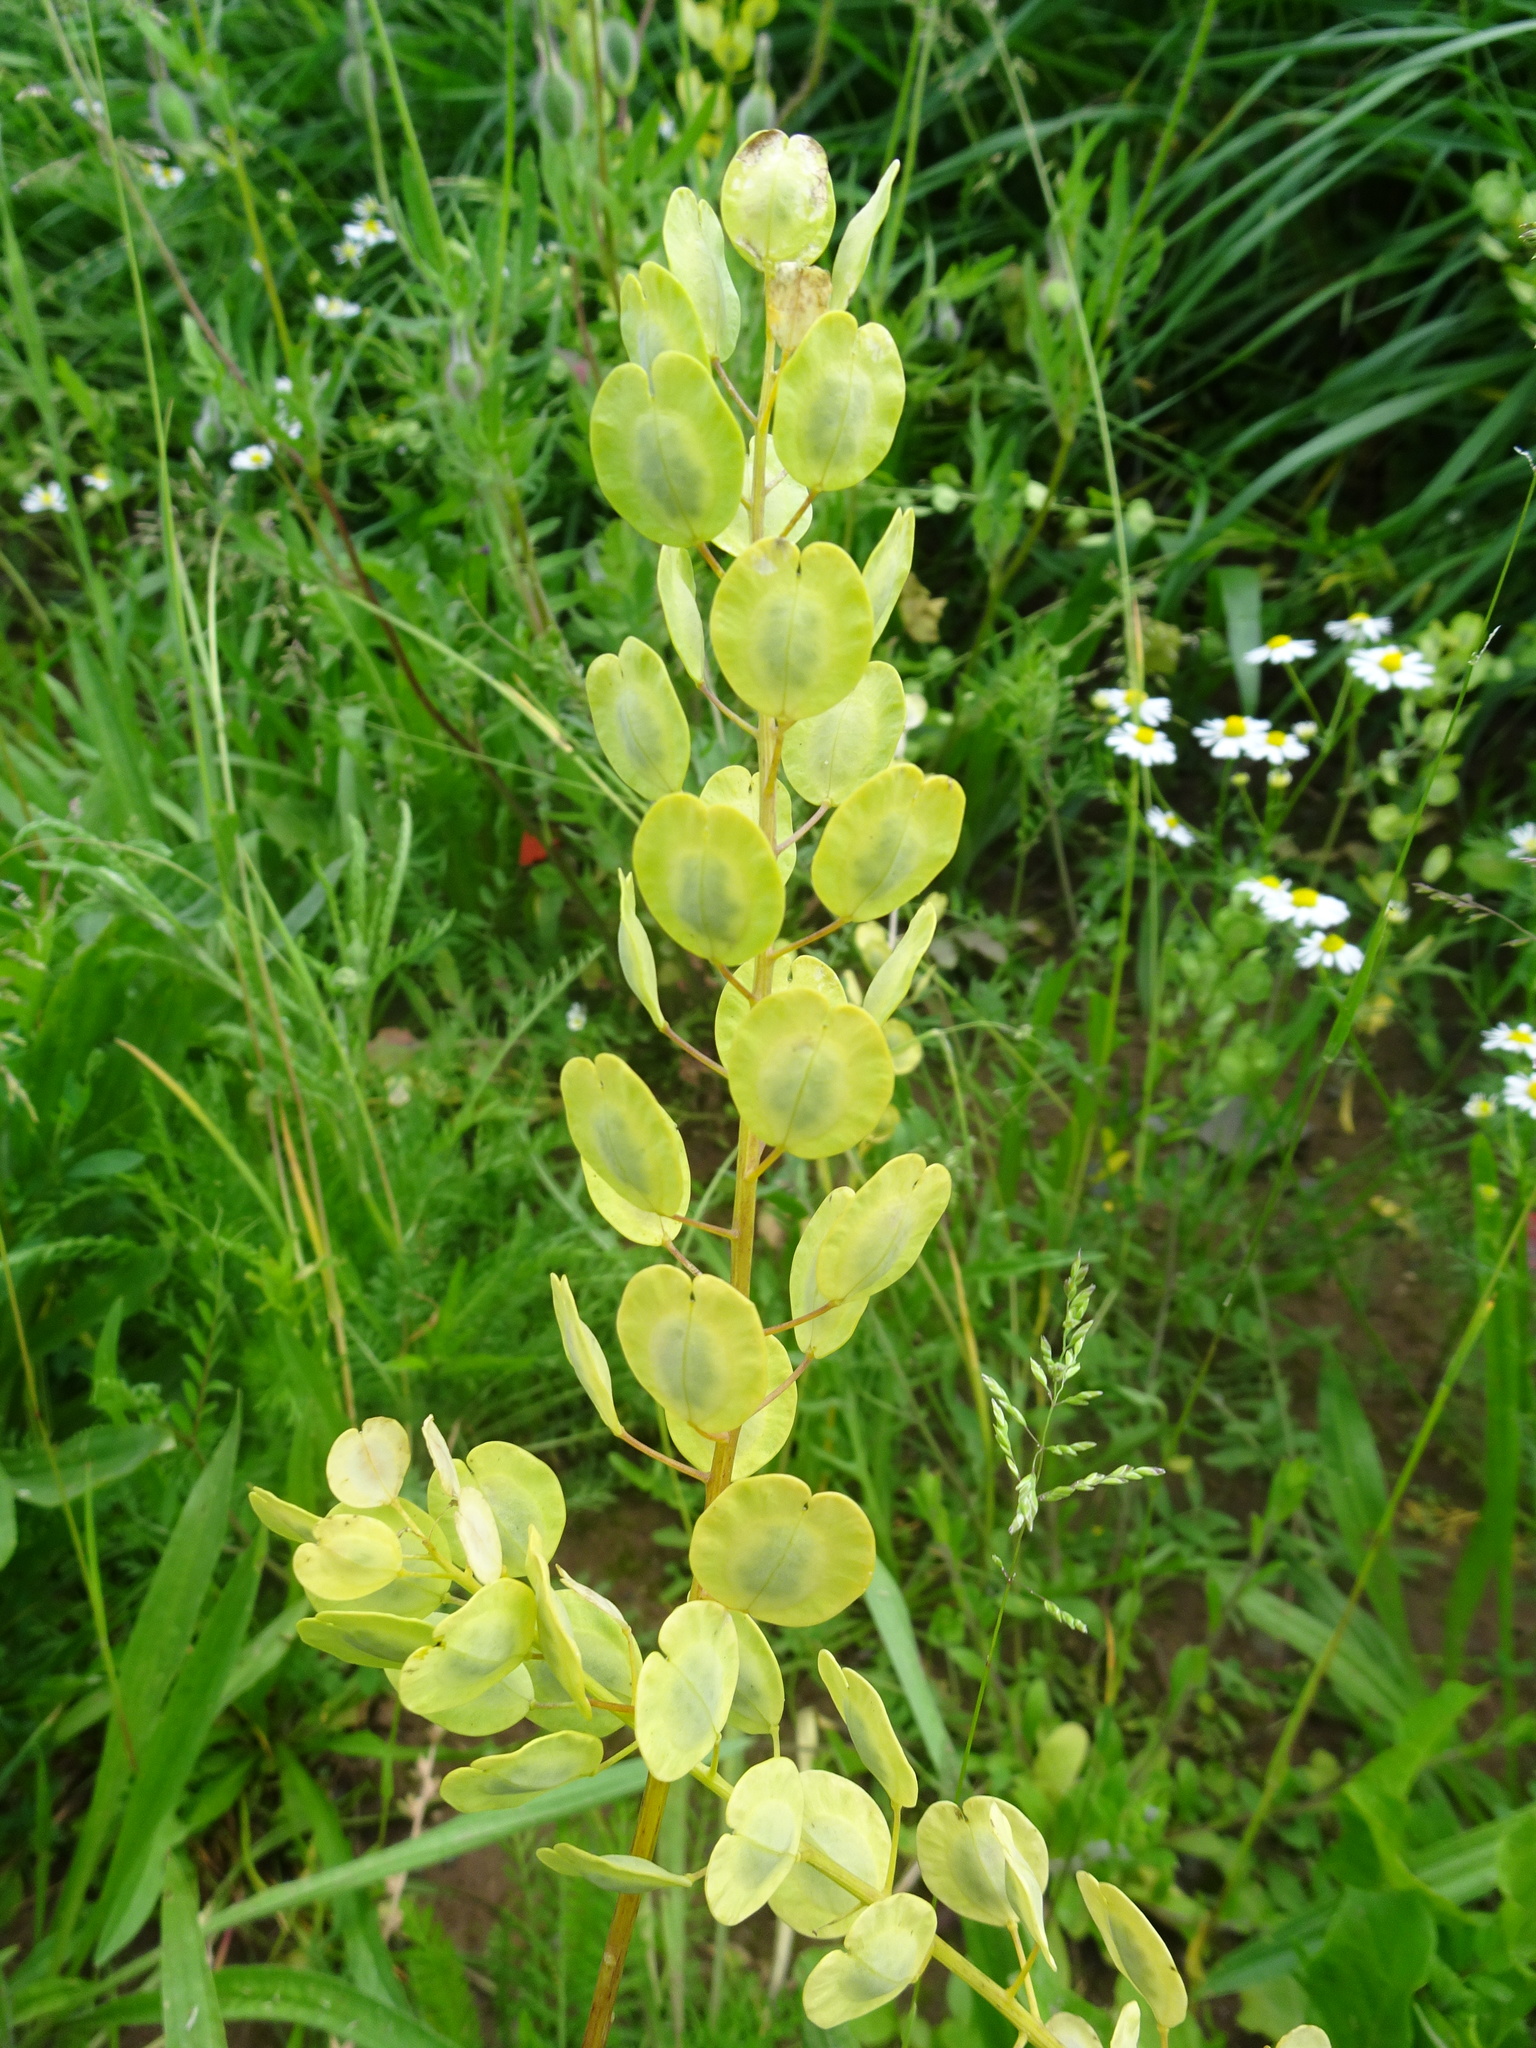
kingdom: Plantae
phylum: Tracheophyta
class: Magnoliopsida
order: Brassicales
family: Brassicaceae
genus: Thlaspi
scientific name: Thlaspi arvense
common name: Field pennycress
